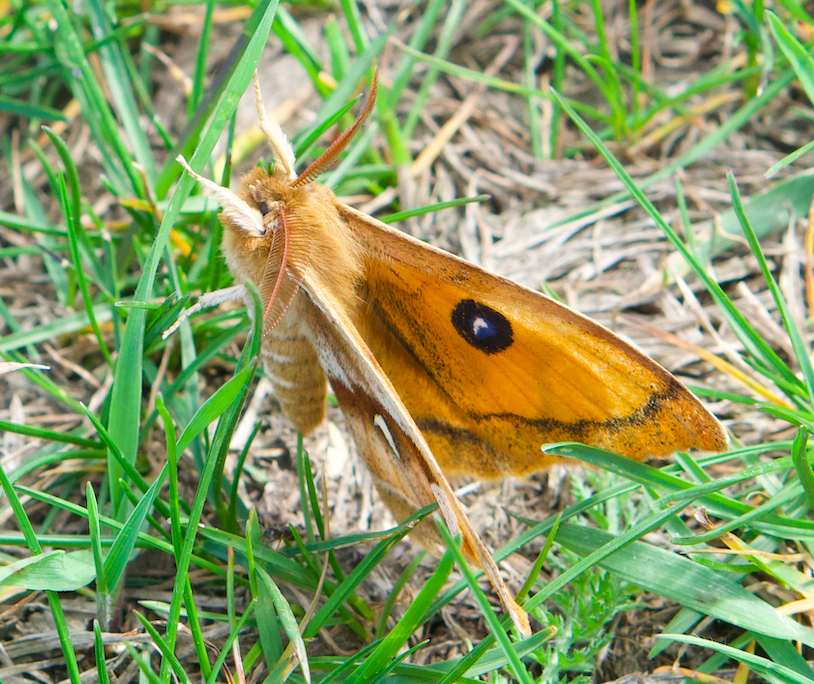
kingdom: Animalia
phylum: Arthropoda
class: Insecta
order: Lepidoptera
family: Saturniidae
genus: Aglia
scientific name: Aglia tau
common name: Tau emperor
